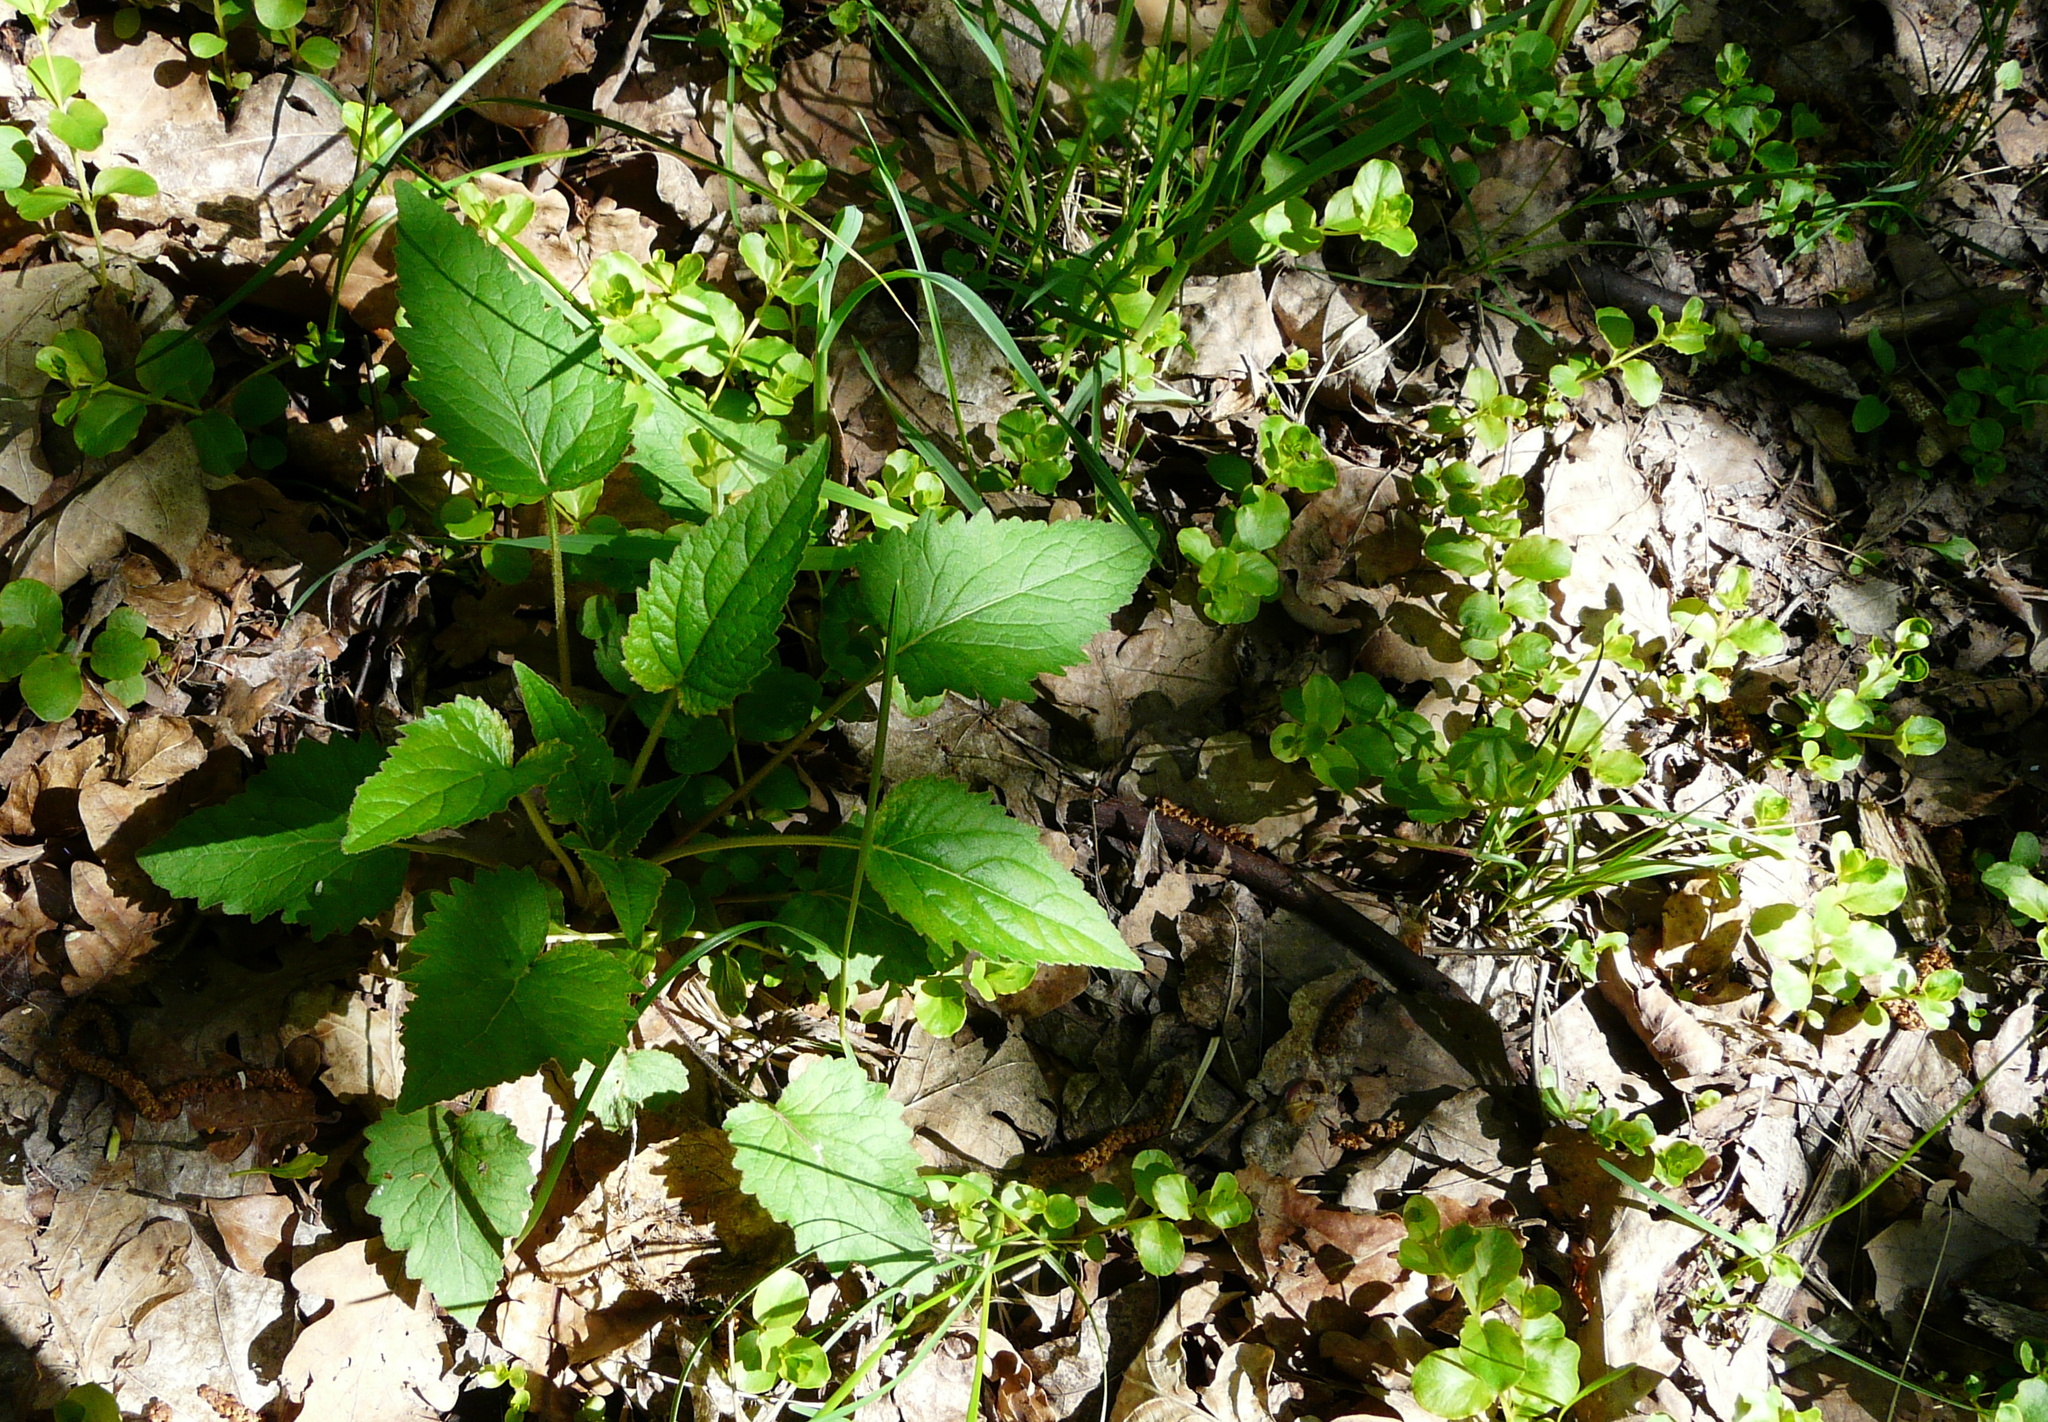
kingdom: Plantae
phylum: Tracheophyta
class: Magnoliopsida
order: Asterales
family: Campanulaceae
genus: Campanula
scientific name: Campanula trachelium
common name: Nettle-leaved bellflower
